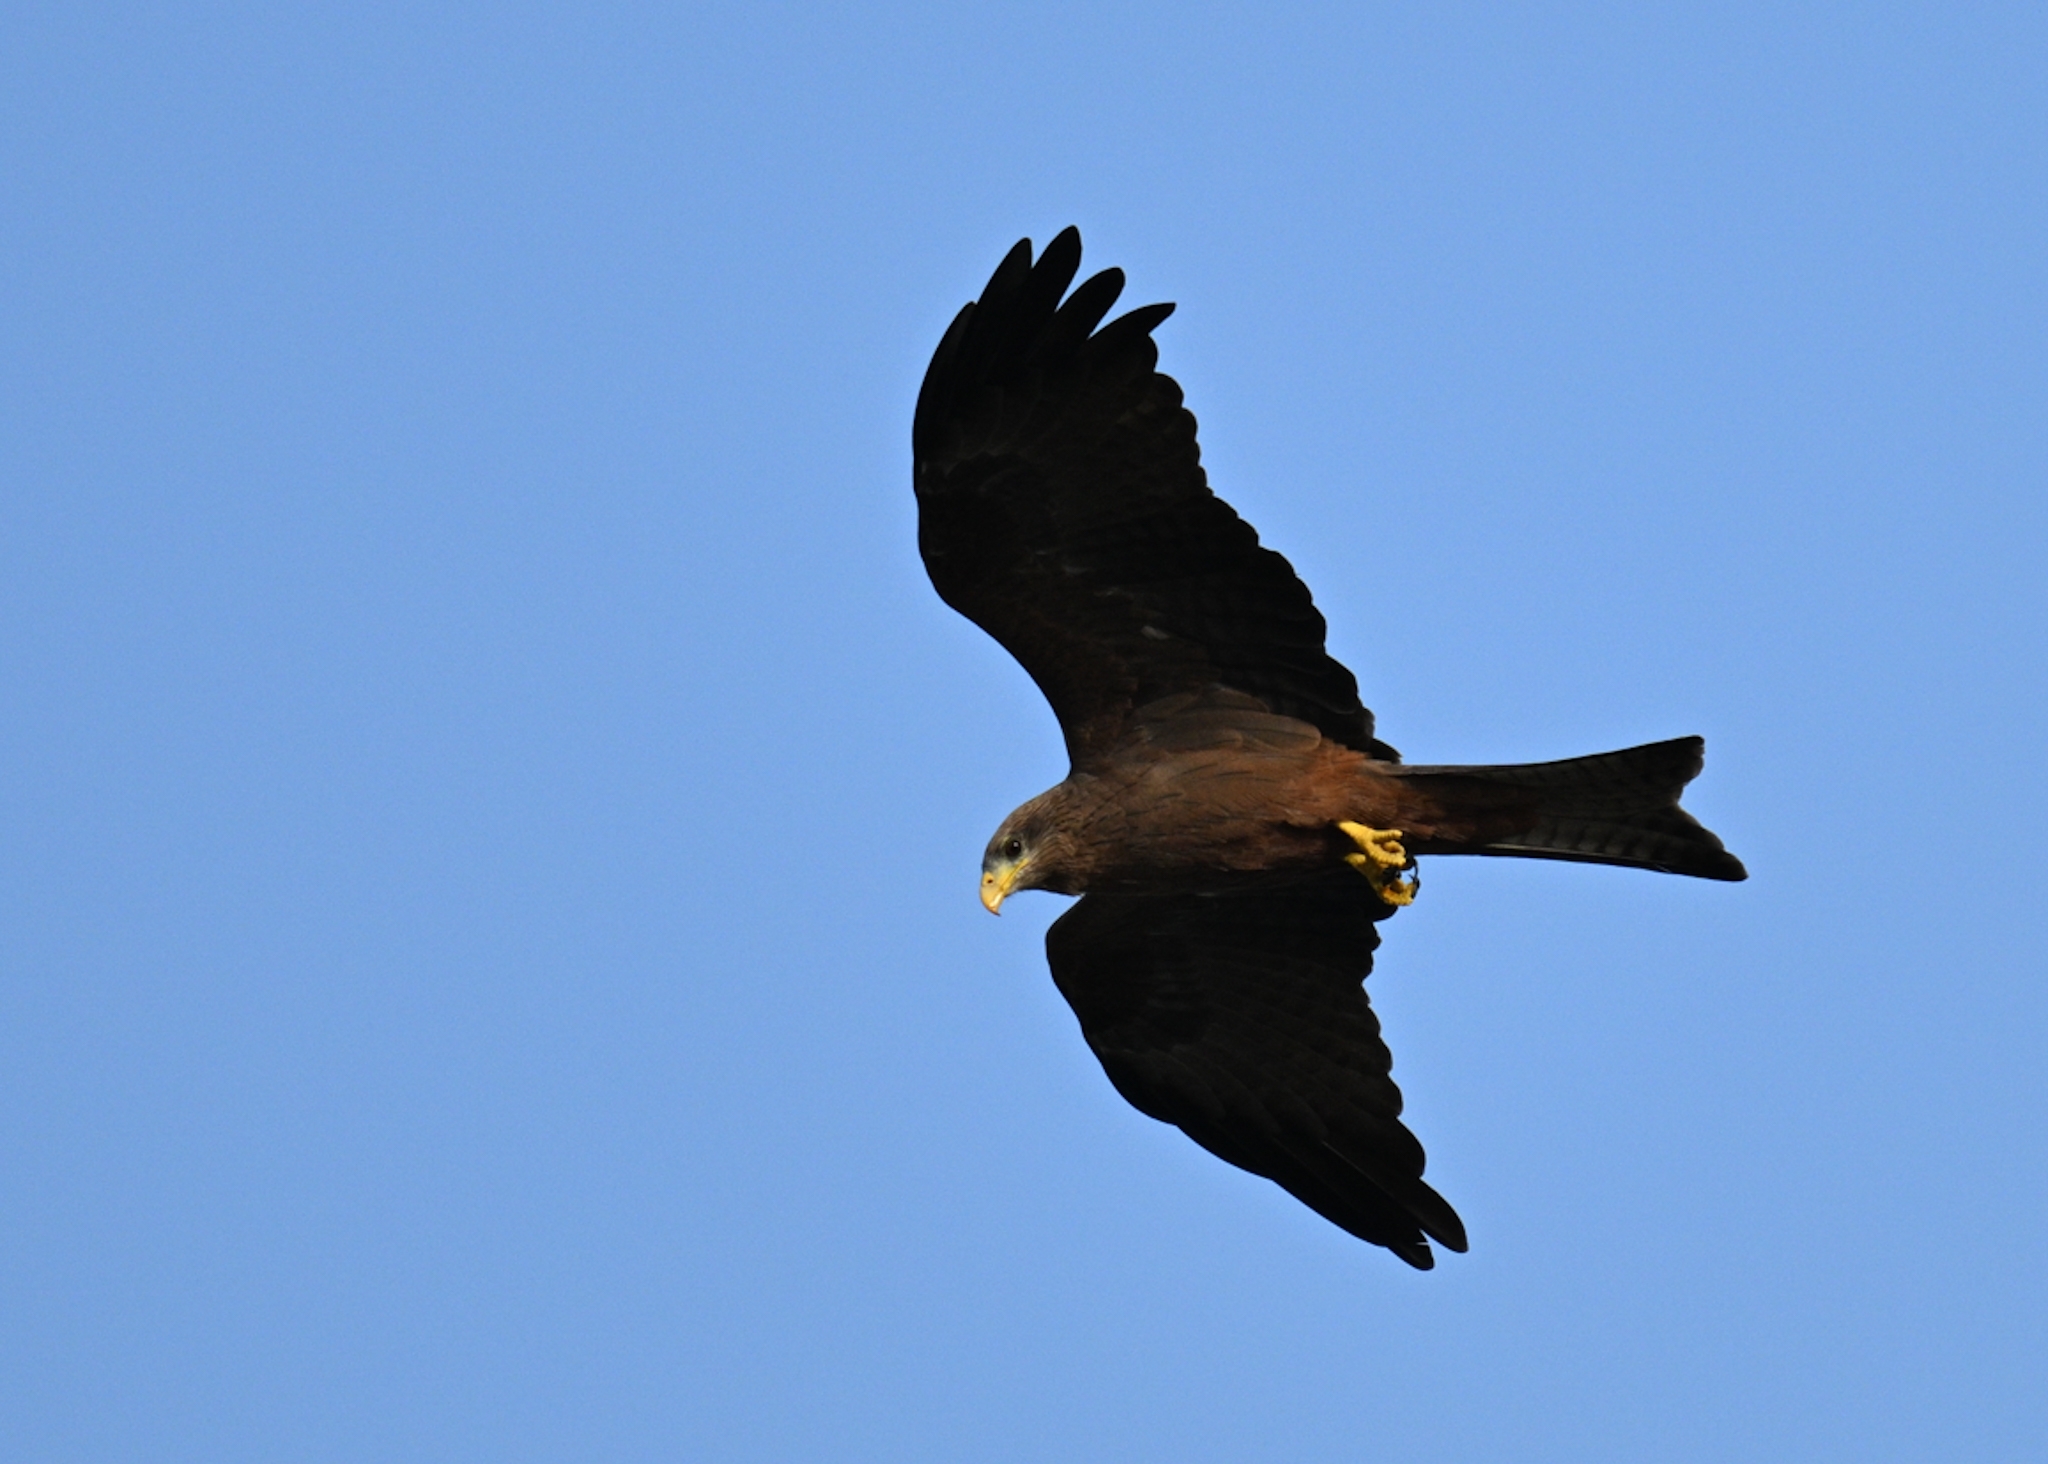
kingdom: Animalia
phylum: Chordata
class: Aves
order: Accipitriformes
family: Accipitridae
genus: Milvus
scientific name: Milvus migrans
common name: Black kite
